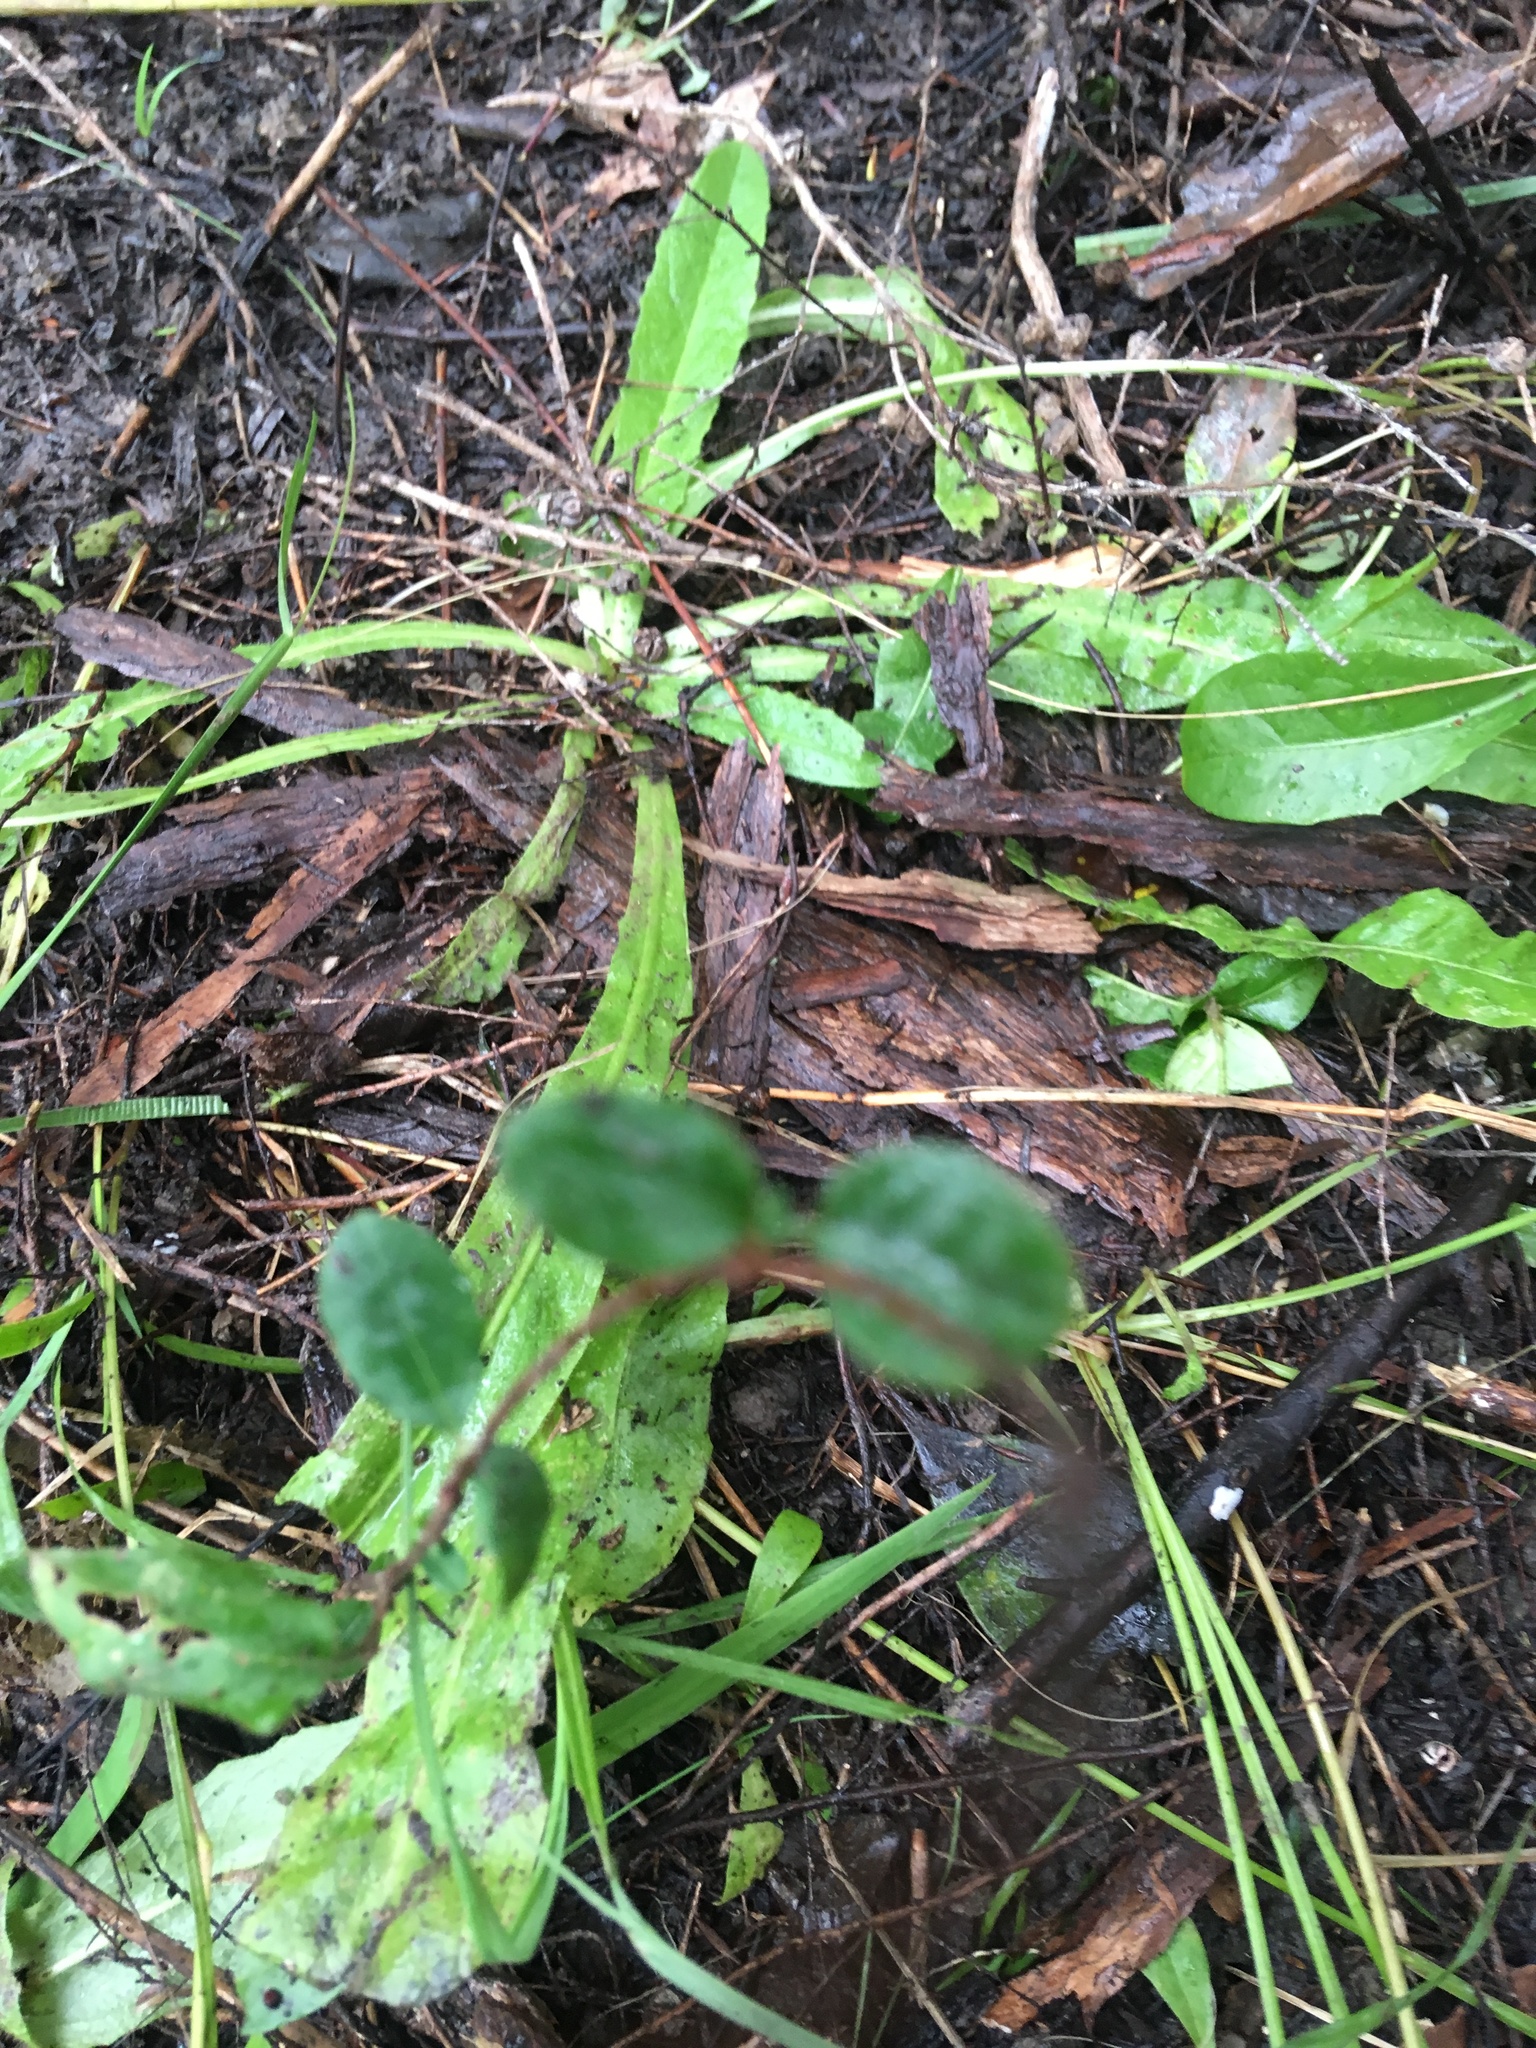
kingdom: Plantae
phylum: Tracheophyta
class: Magnoliopsida
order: Dipsacales
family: Caprifoliaceae
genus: Lonicera
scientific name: Lonicera japonica
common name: Japanese honeysuckle
